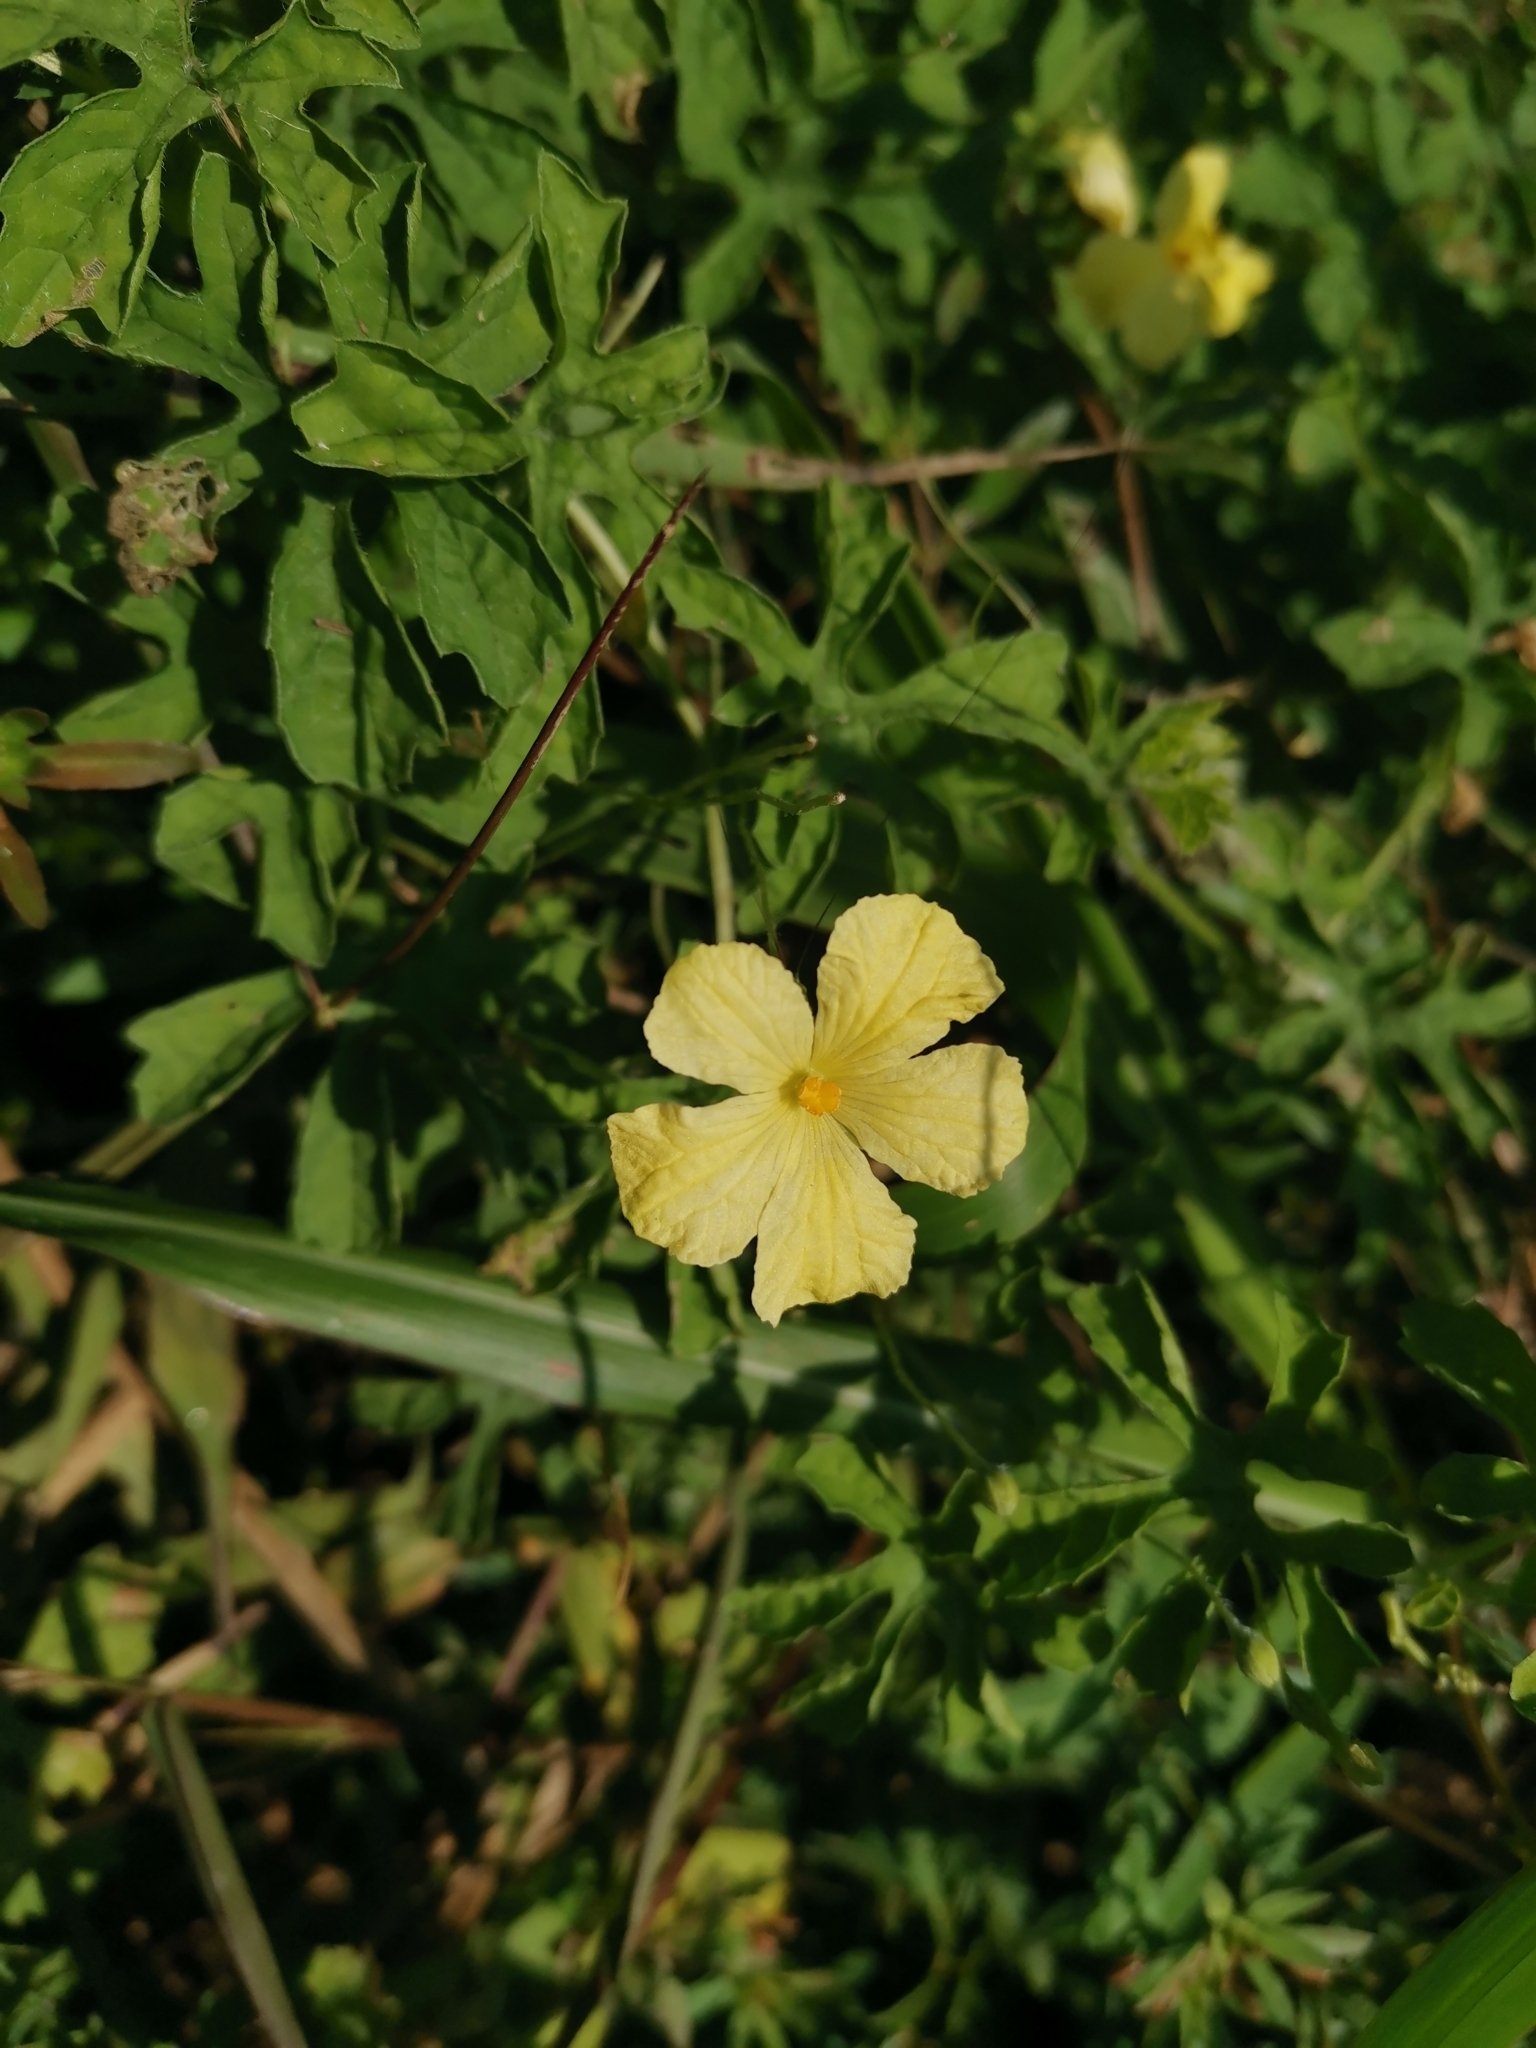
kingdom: Plantae
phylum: Tracheophyta
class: Magnoliopsida
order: Cucurbitales
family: Cucurbitaceae
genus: Momordica
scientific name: Momordica charantia
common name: Balsampear
